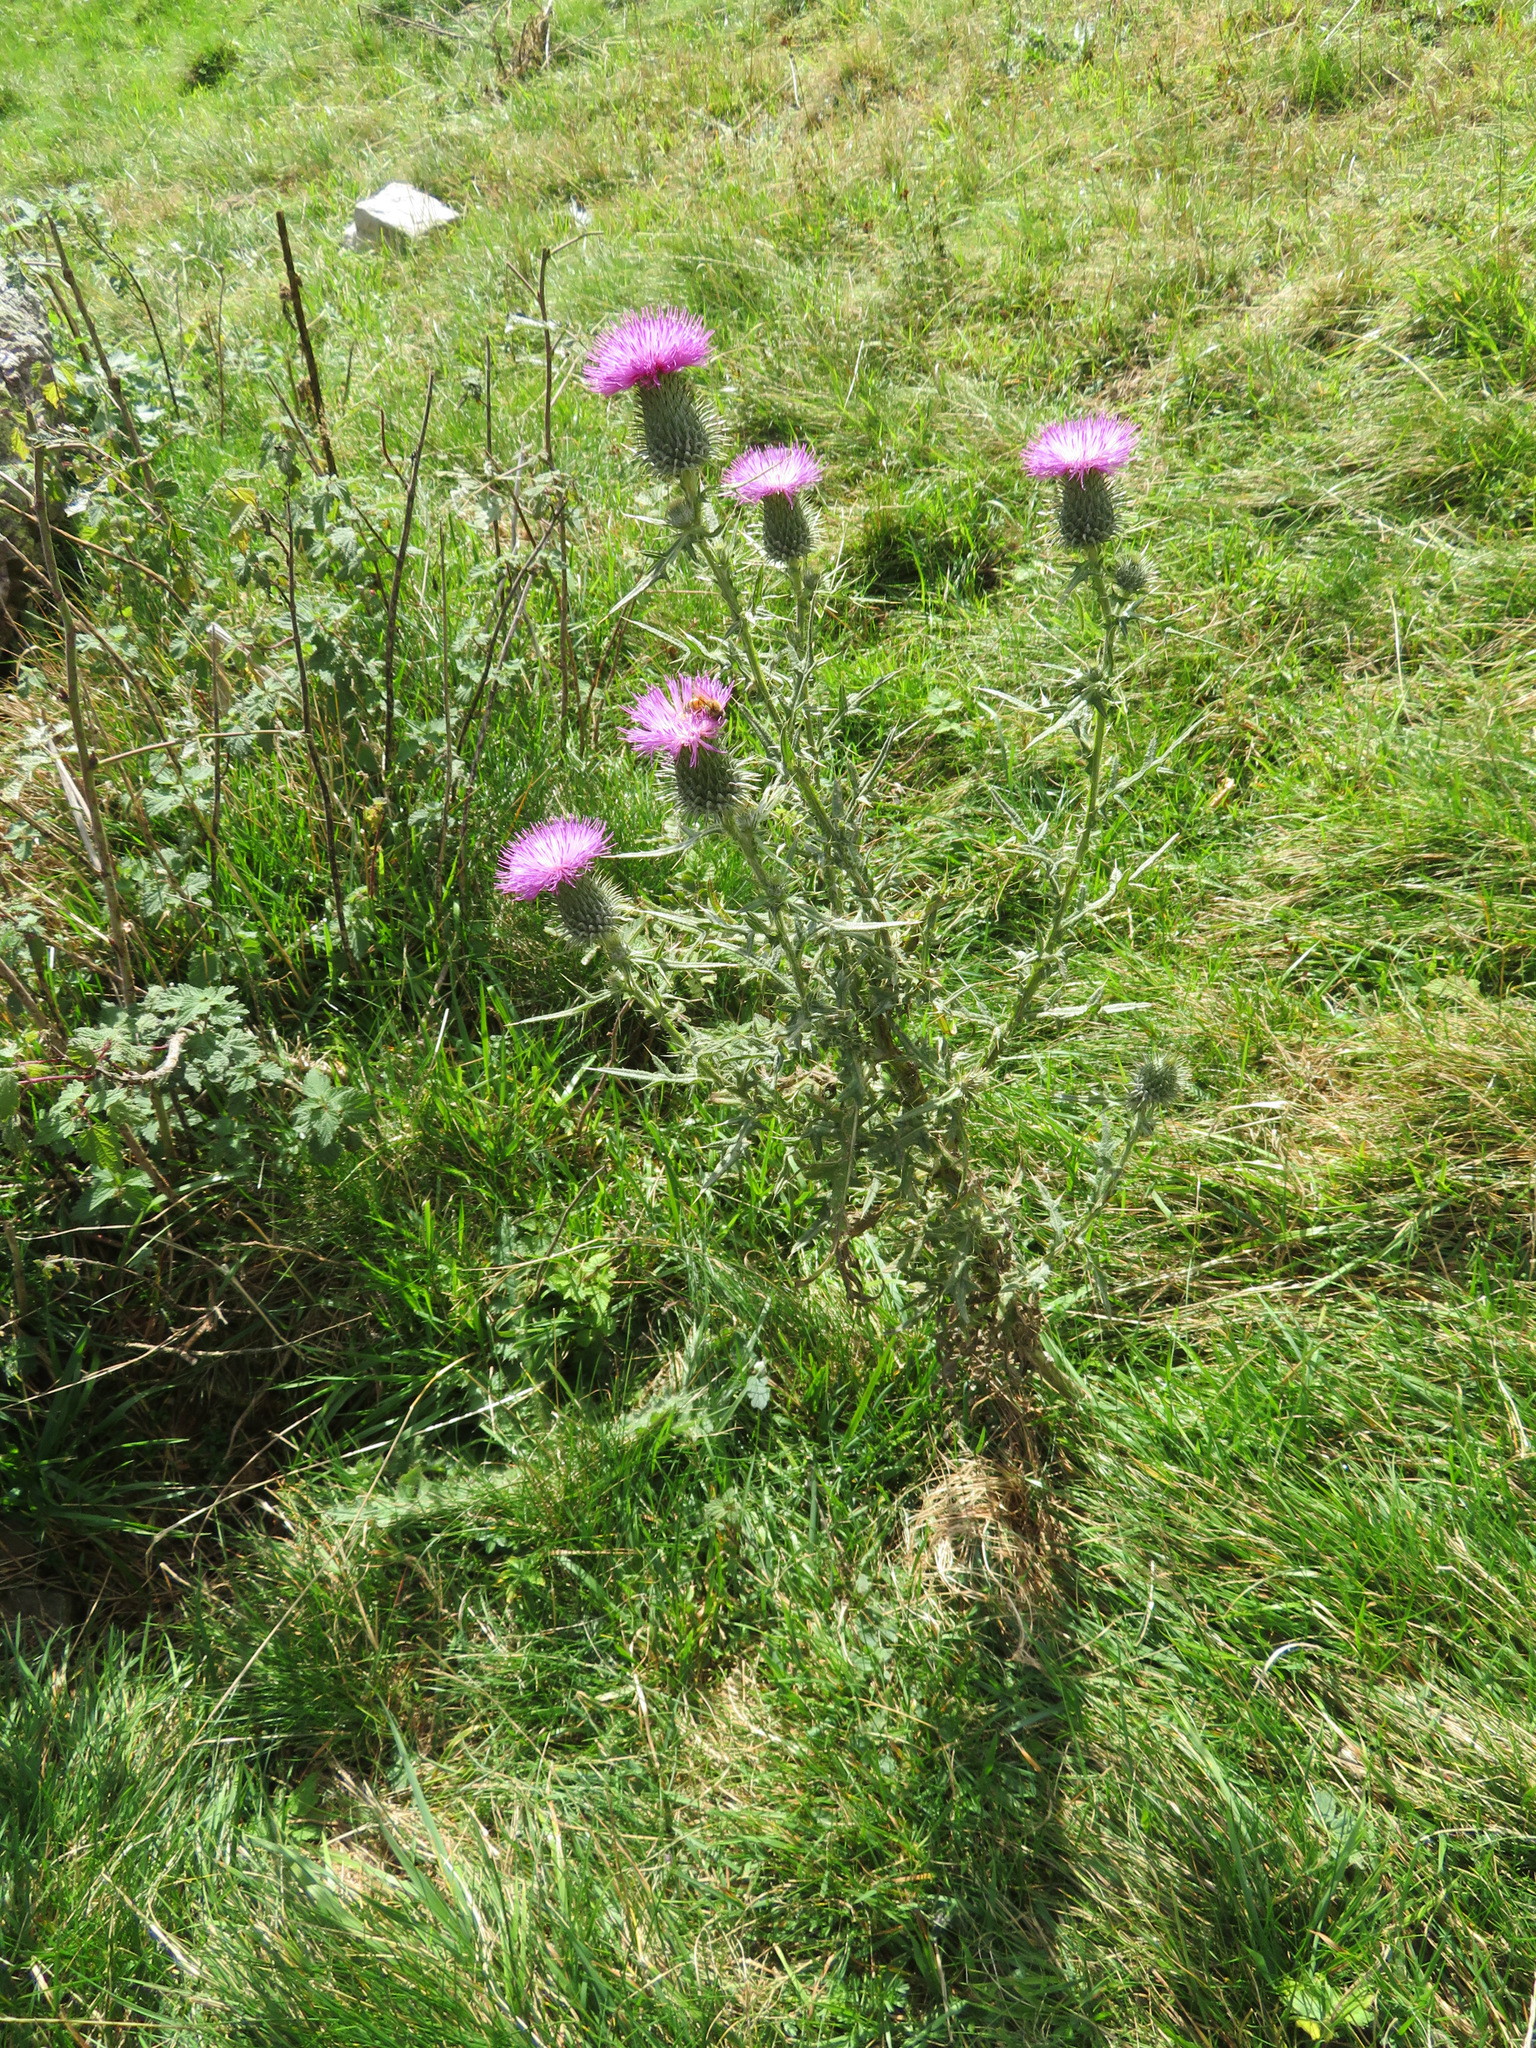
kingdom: Plantae
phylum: Tracheophyta
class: Magnoliopsida
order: Asterales
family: Asteraceae
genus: Cirsium
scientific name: Cirsium vulgare
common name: Bull thistle
